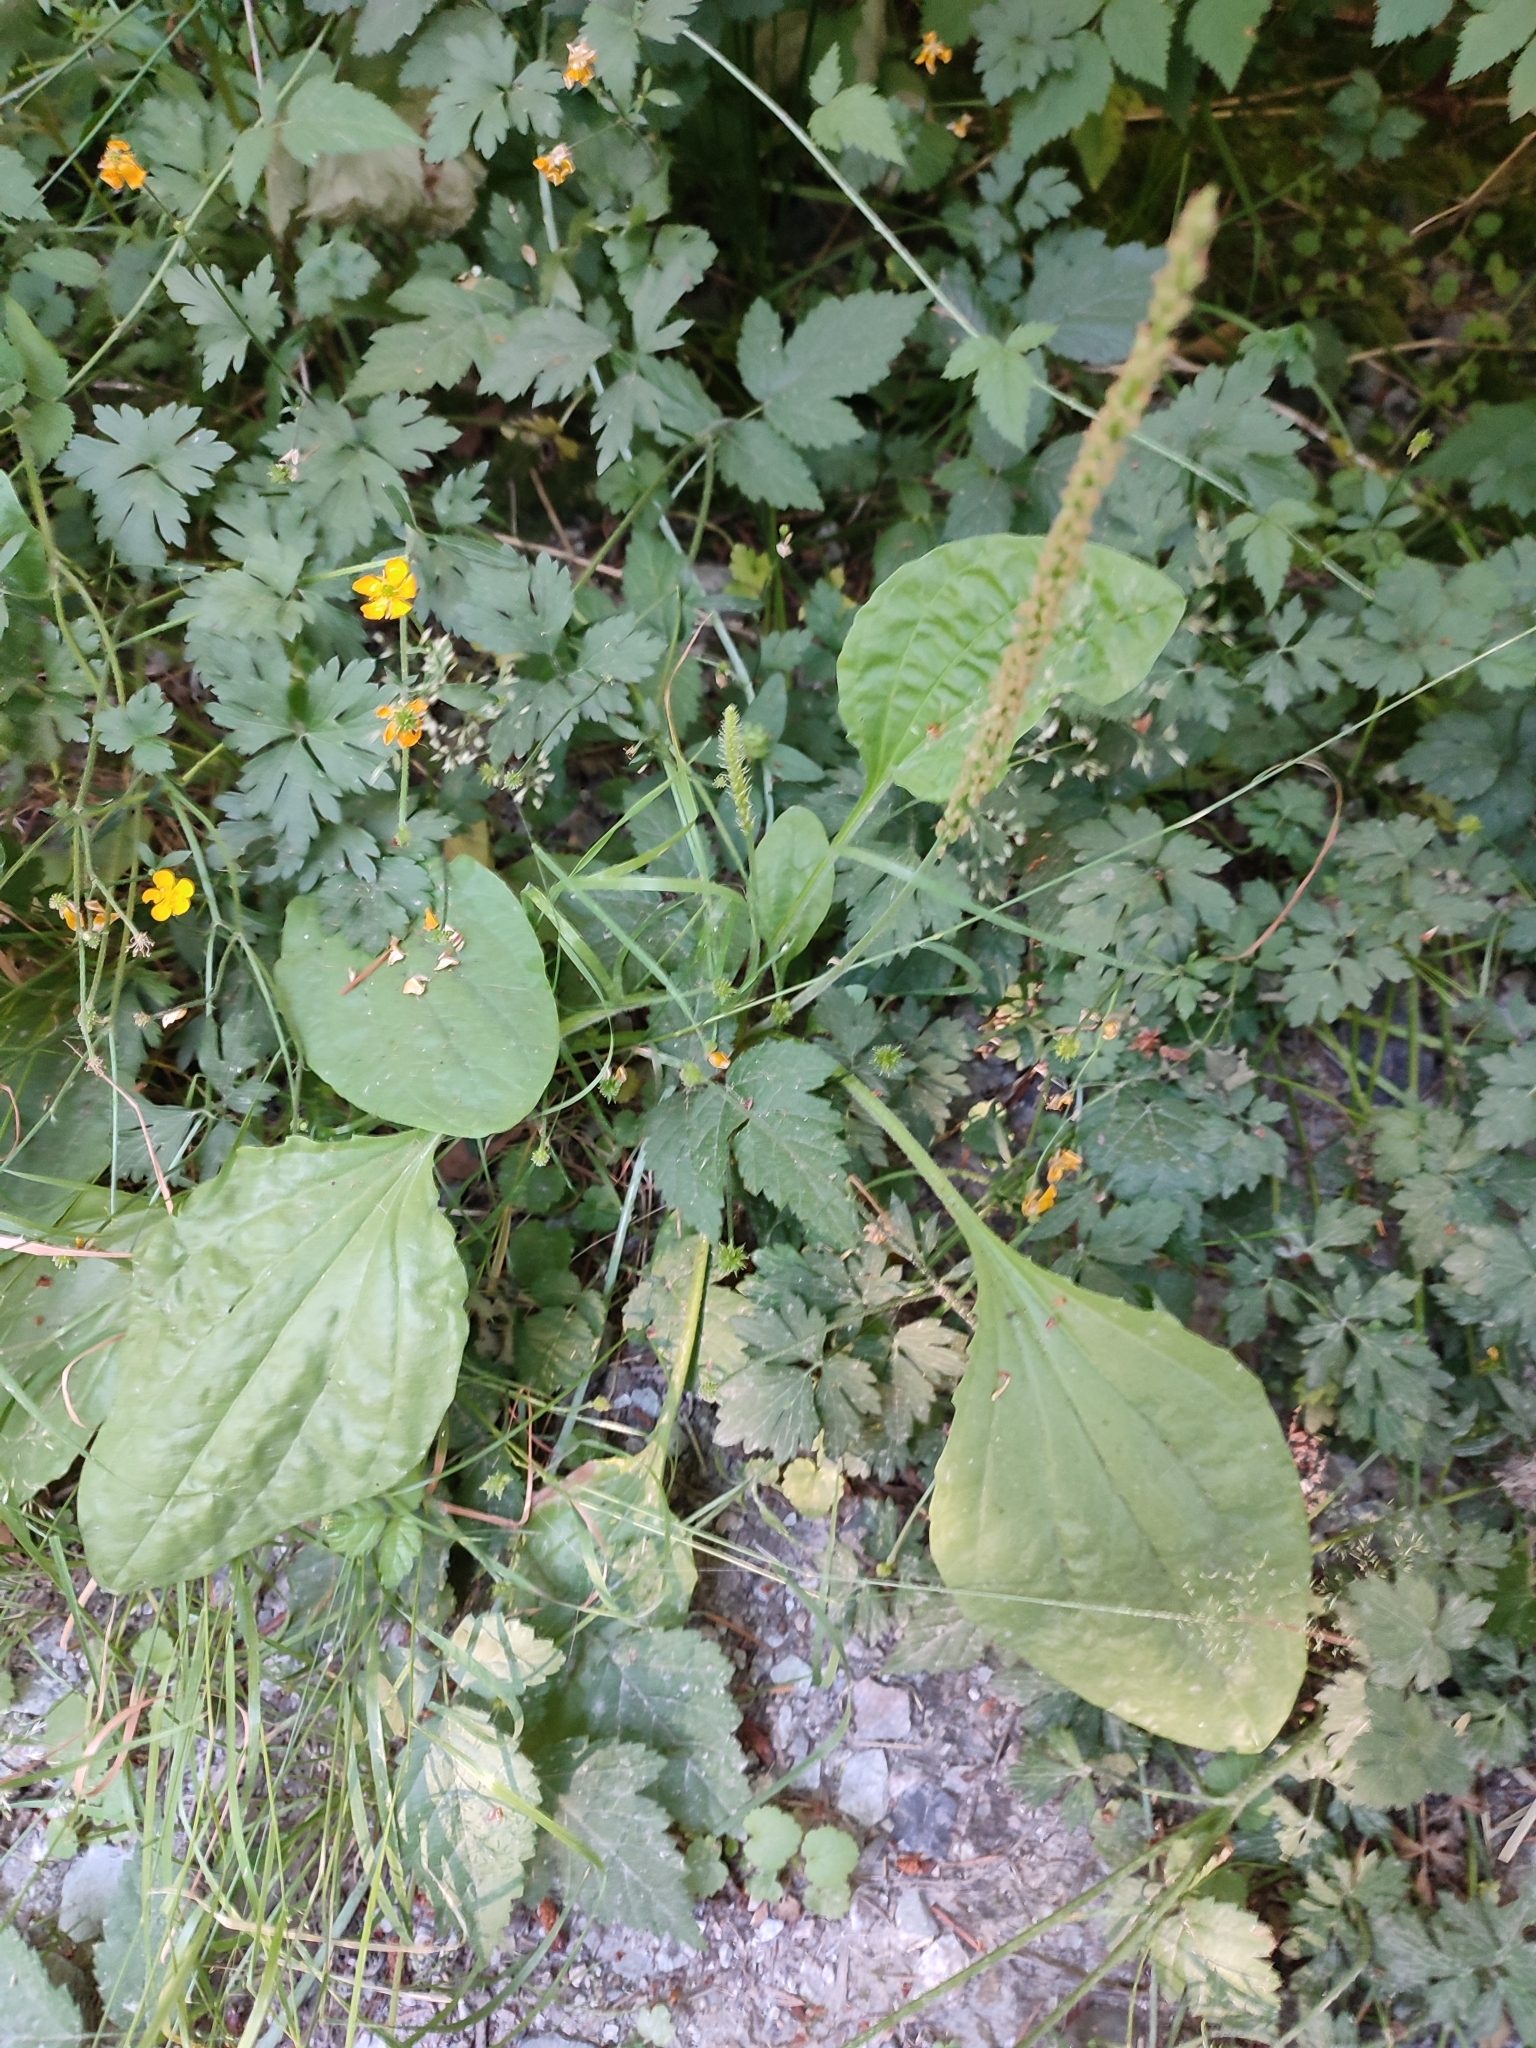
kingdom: Plantae
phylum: Tracheophyta
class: Magnoliopsida
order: Lamiales
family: Plantaginaceae
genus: Plantago
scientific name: Plantago major
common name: Common plantain
